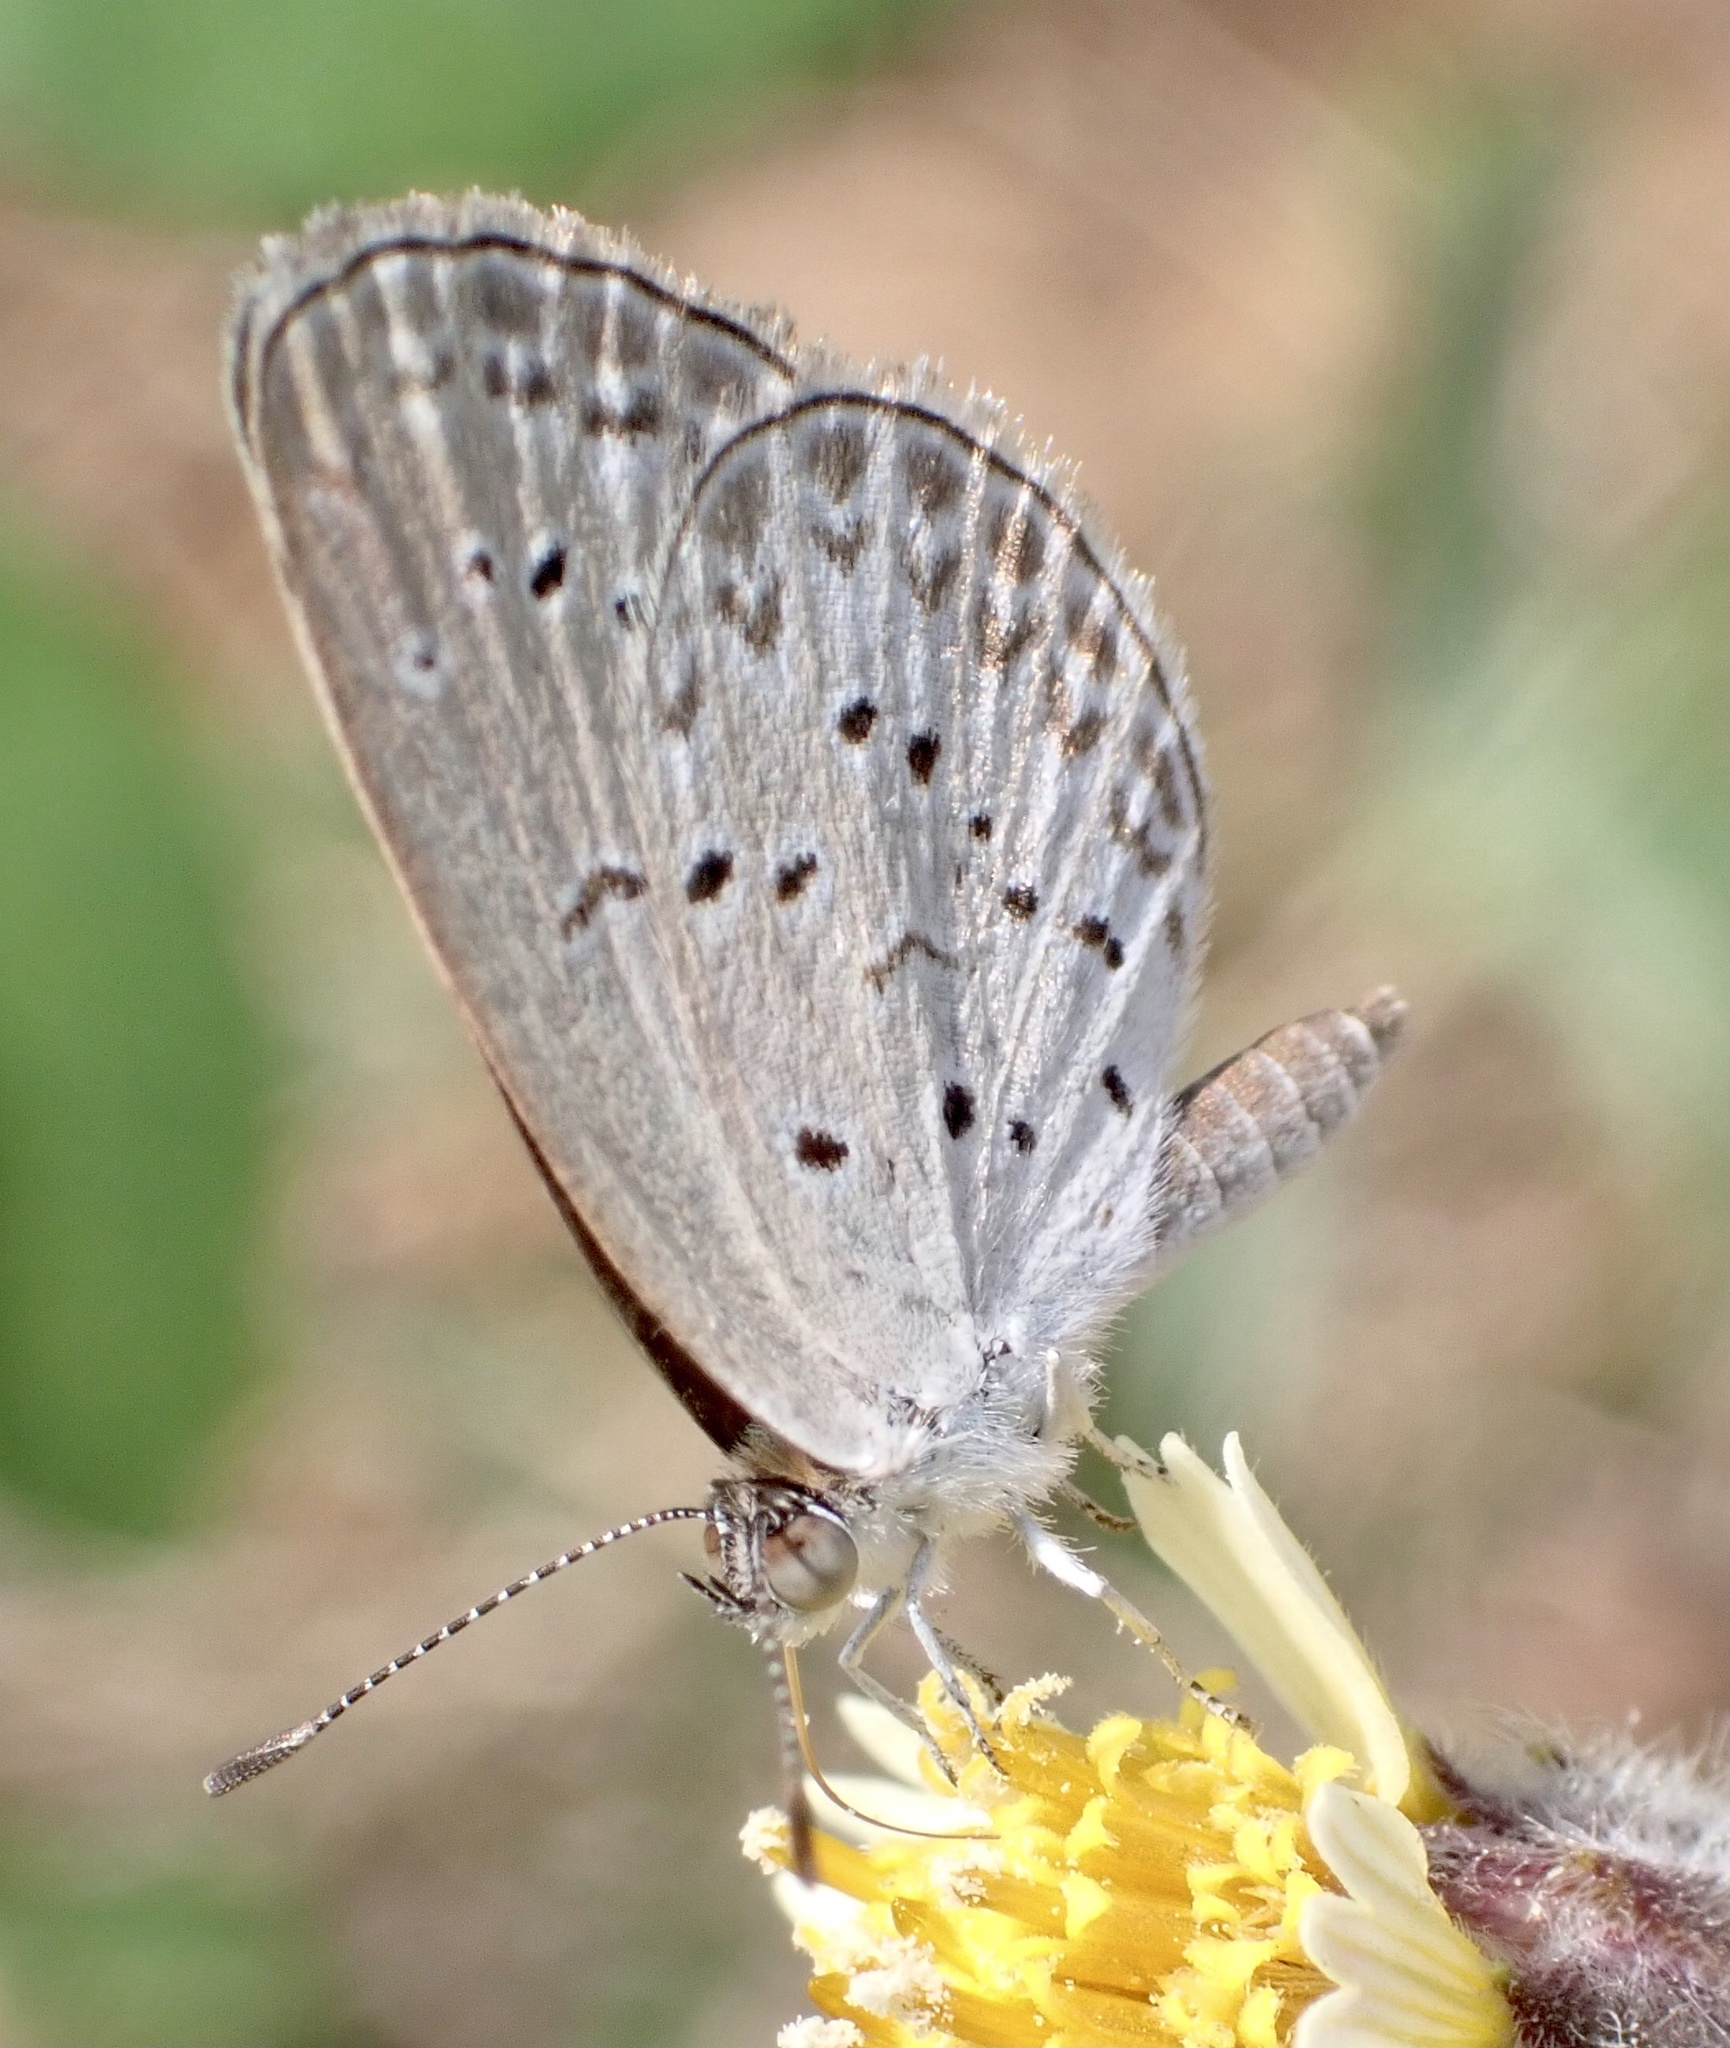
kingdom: Animalia
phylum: Arthropoda
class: Insecta
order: Lepidoptera
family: Lycaenidae
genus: Zizina
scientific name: Zizina otis
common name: Lesser grass blue
